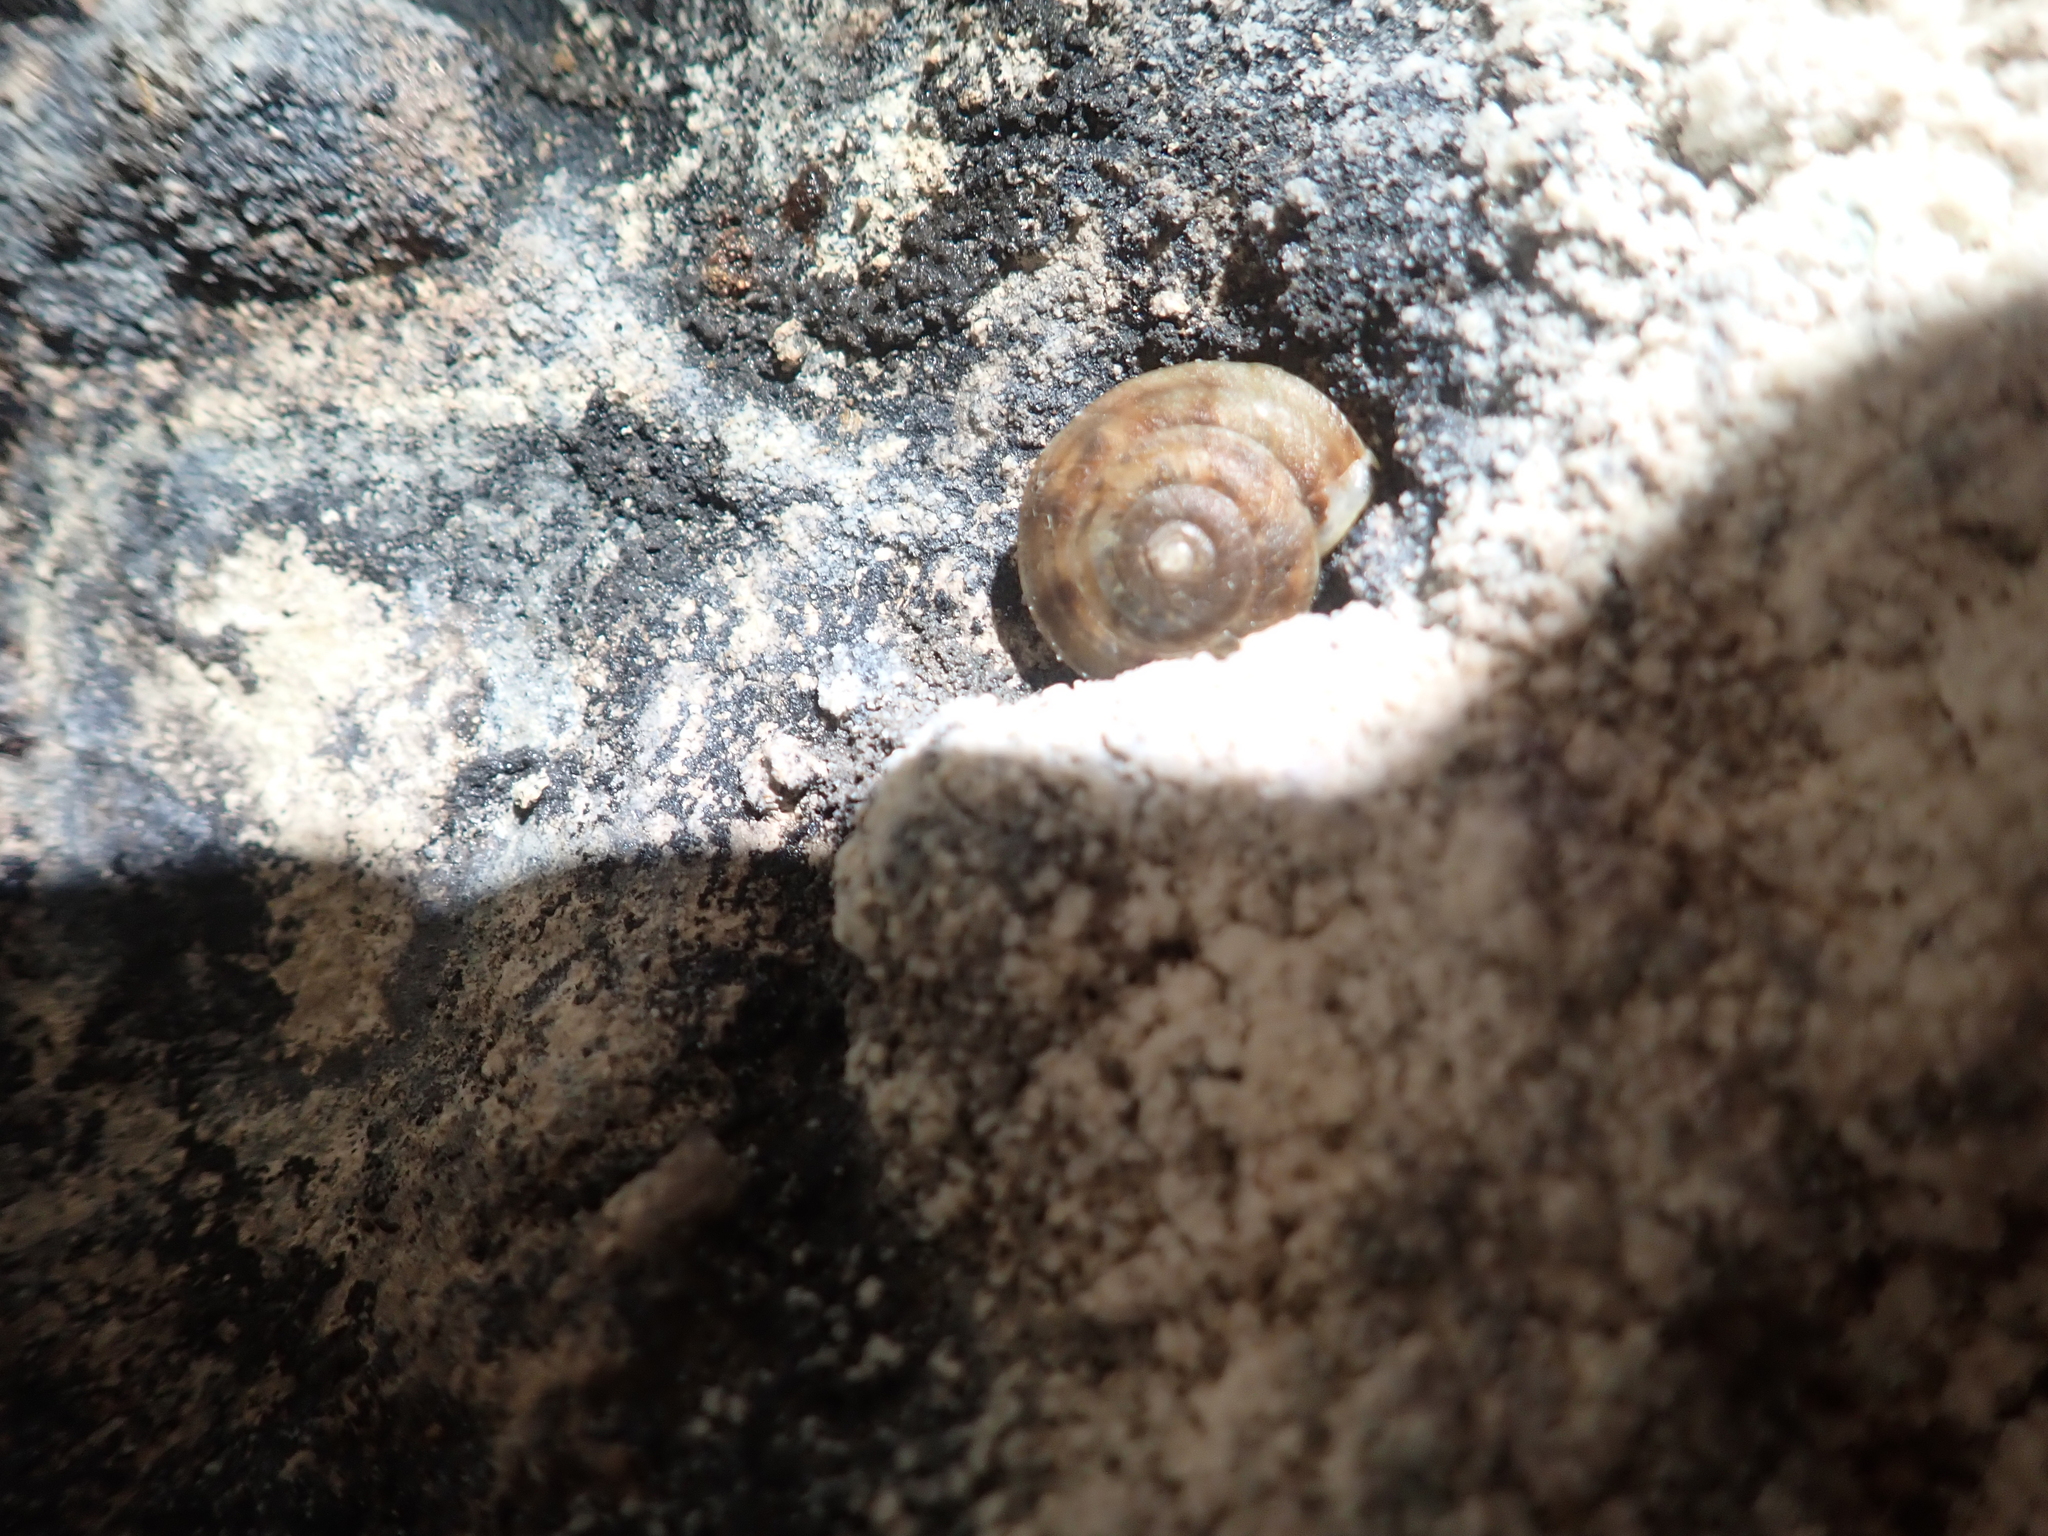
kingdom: Animalia
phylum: Mollusca
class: Gastropoda
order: Stylommatophora
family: Helicidae
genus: Helicigona
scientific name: Helicigona lapicida
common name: Lapidary snail
